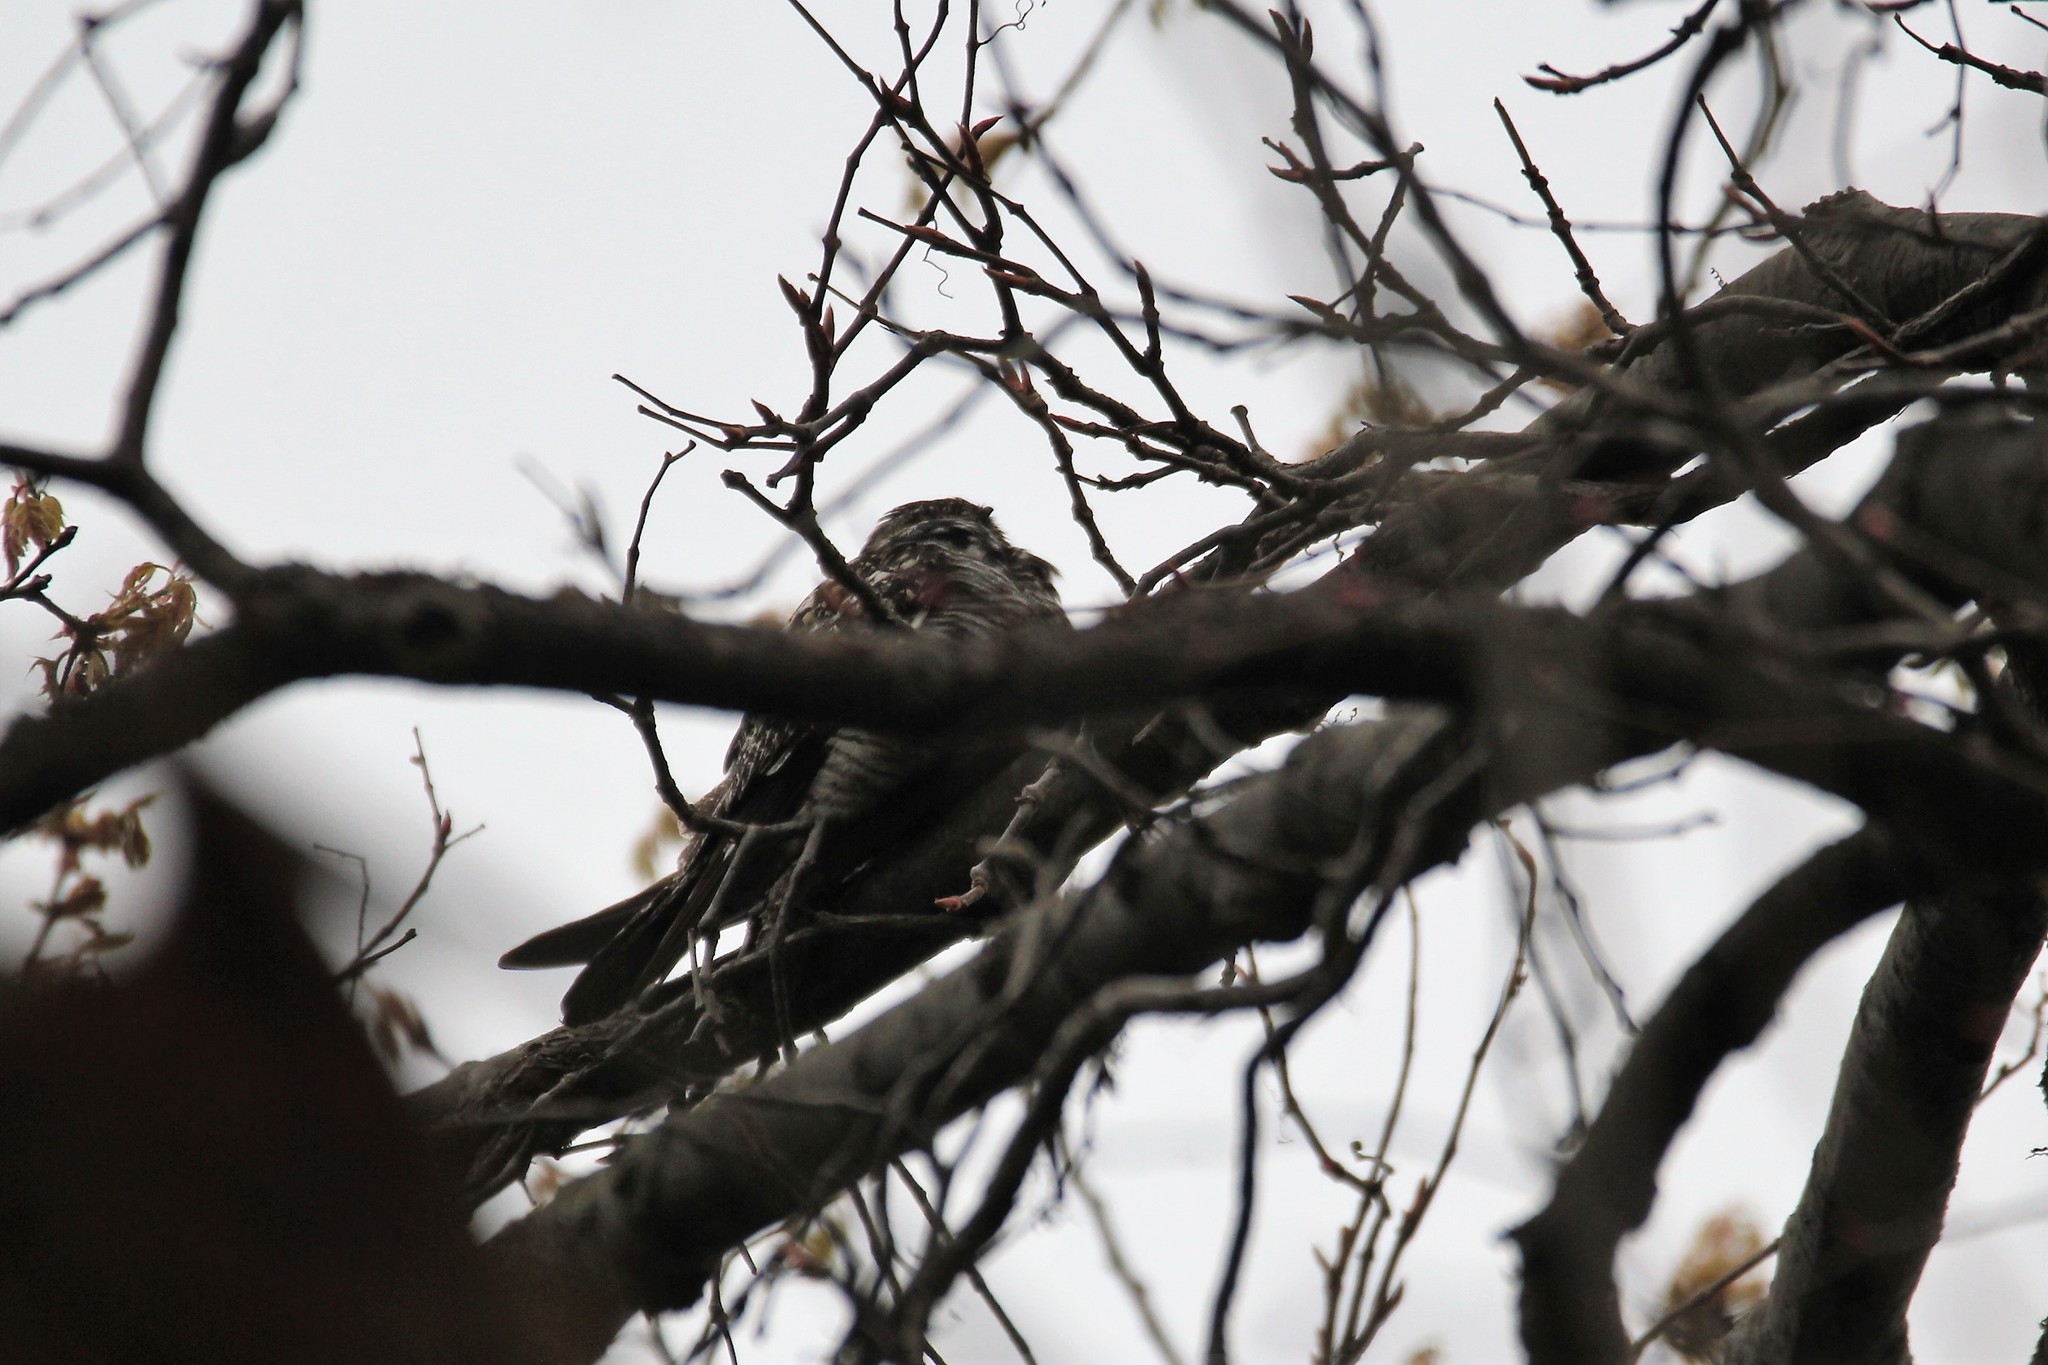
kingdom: Animalia
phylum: Chordata
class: Aves
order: Caprimulgiformes
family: Caprimulgidae
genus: Chordeiles
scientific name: Chordeiles minor
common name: Common nighthawk
